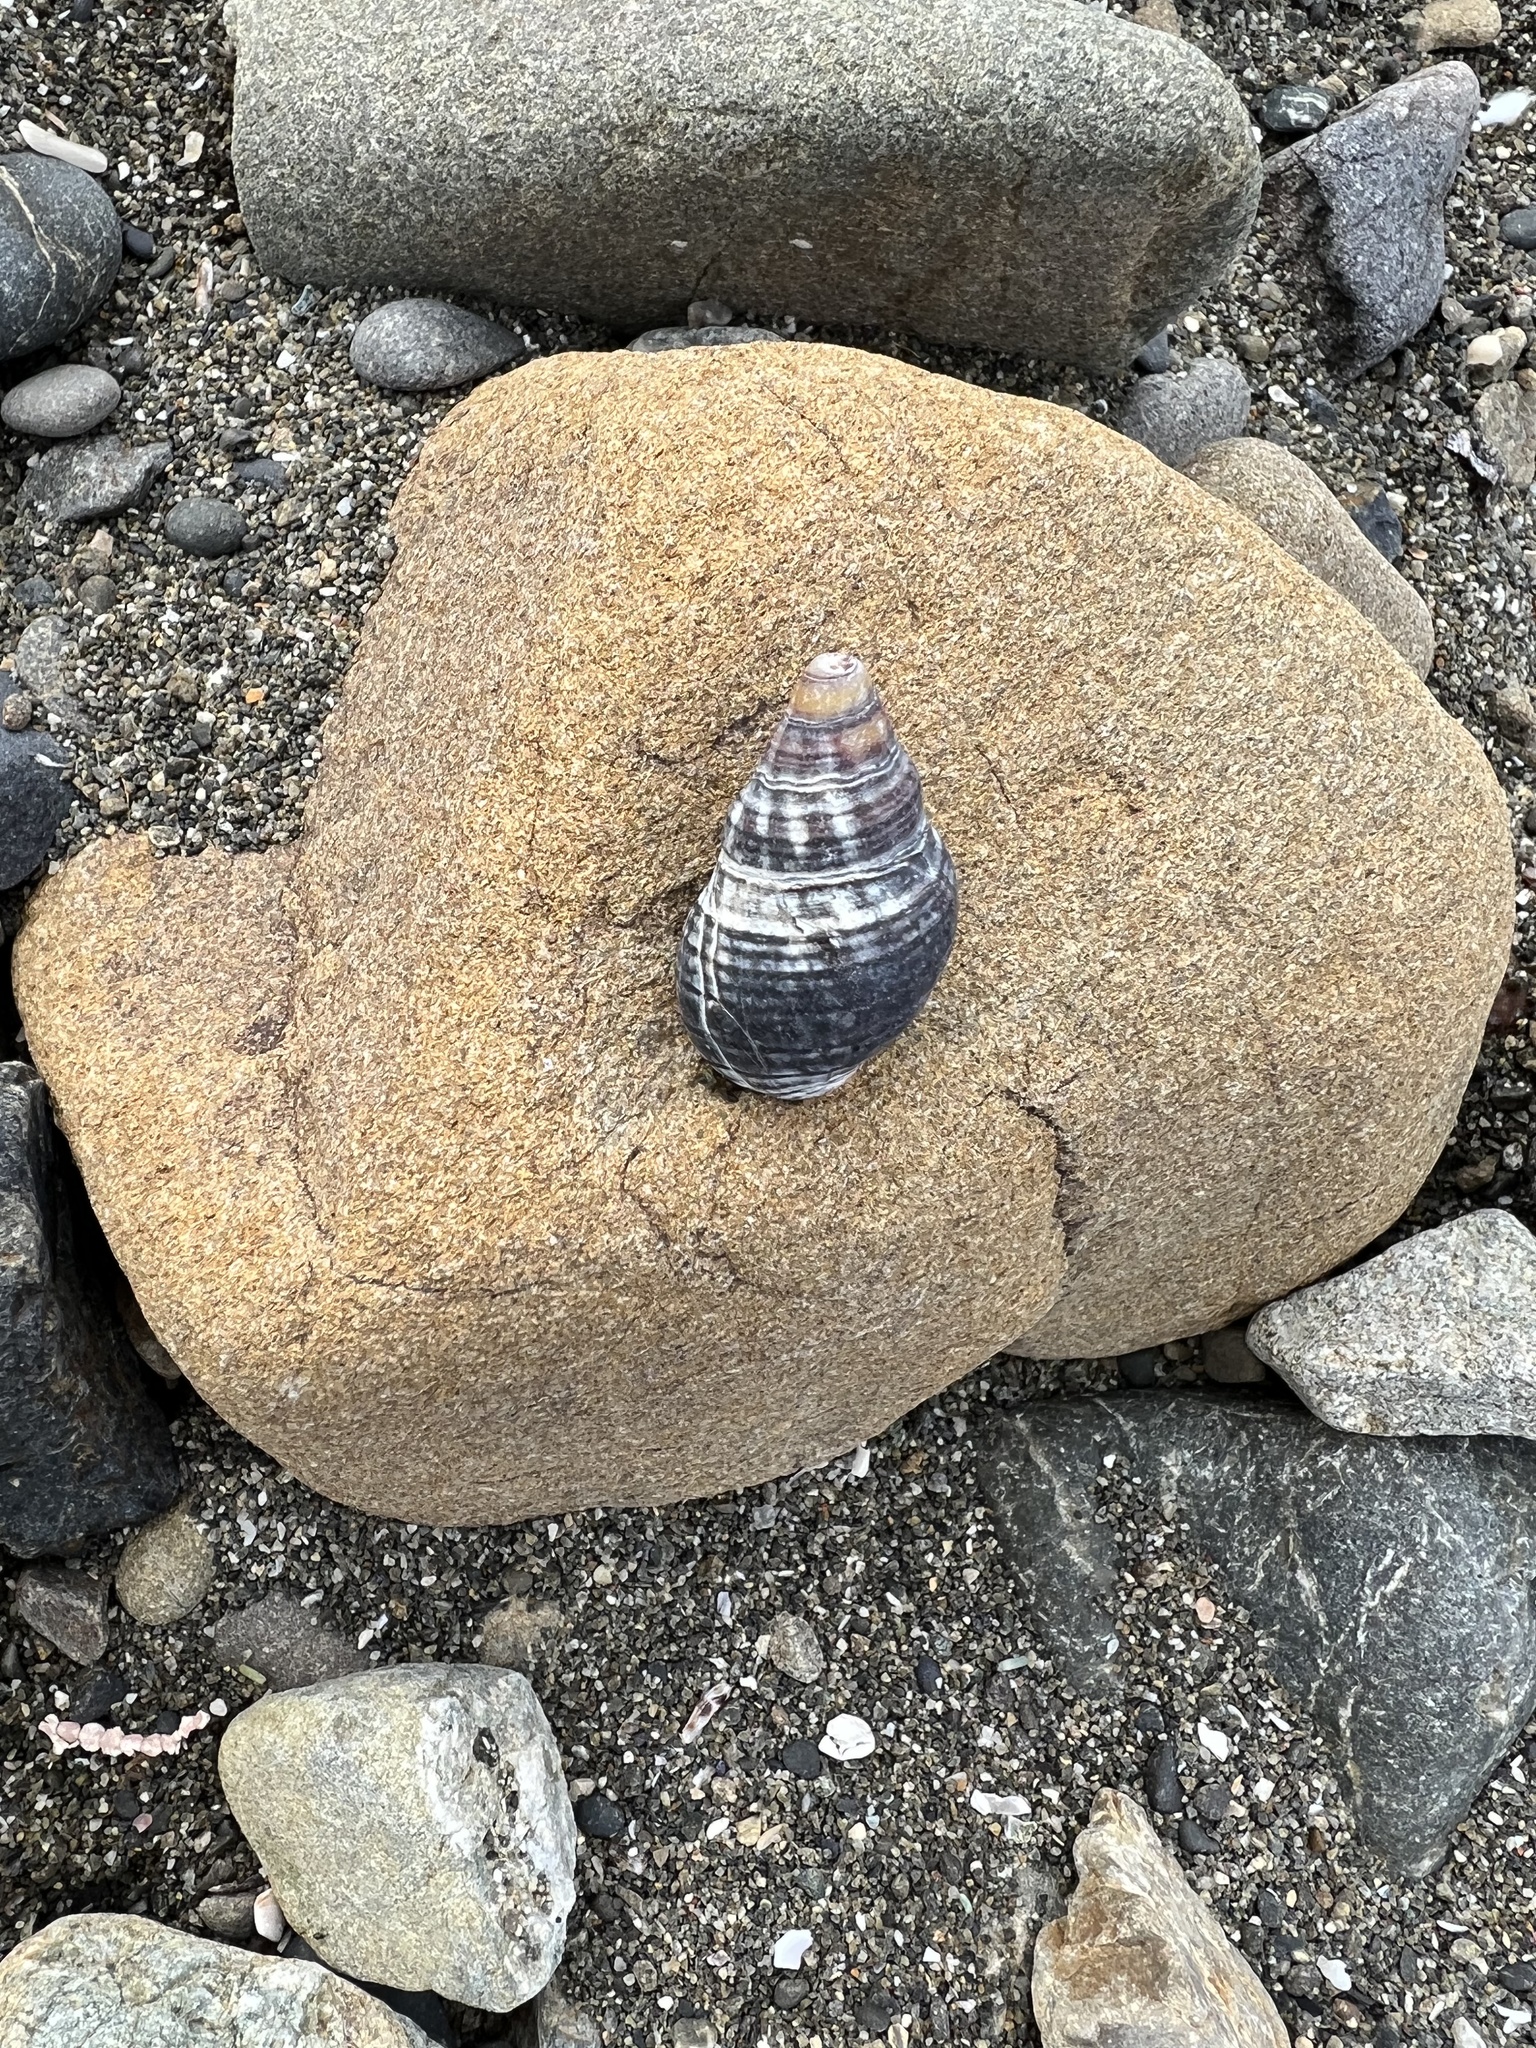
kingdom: Animalia
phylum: Mollusca
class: Gastropoda
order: Neogastropoda
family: Cominellidae
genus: Cominella
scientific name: Cominella virgata
